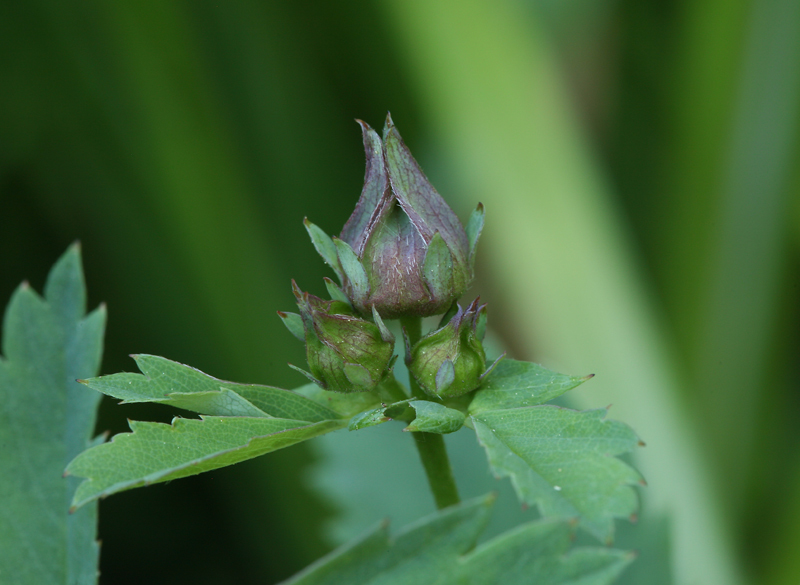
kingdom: Plantae
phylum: Tracheophyta
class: Magnoliopsida
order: Rosales
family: Rosaceae
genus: Comarum
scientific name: Comarum palustre
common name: Marsh cinquefoil
